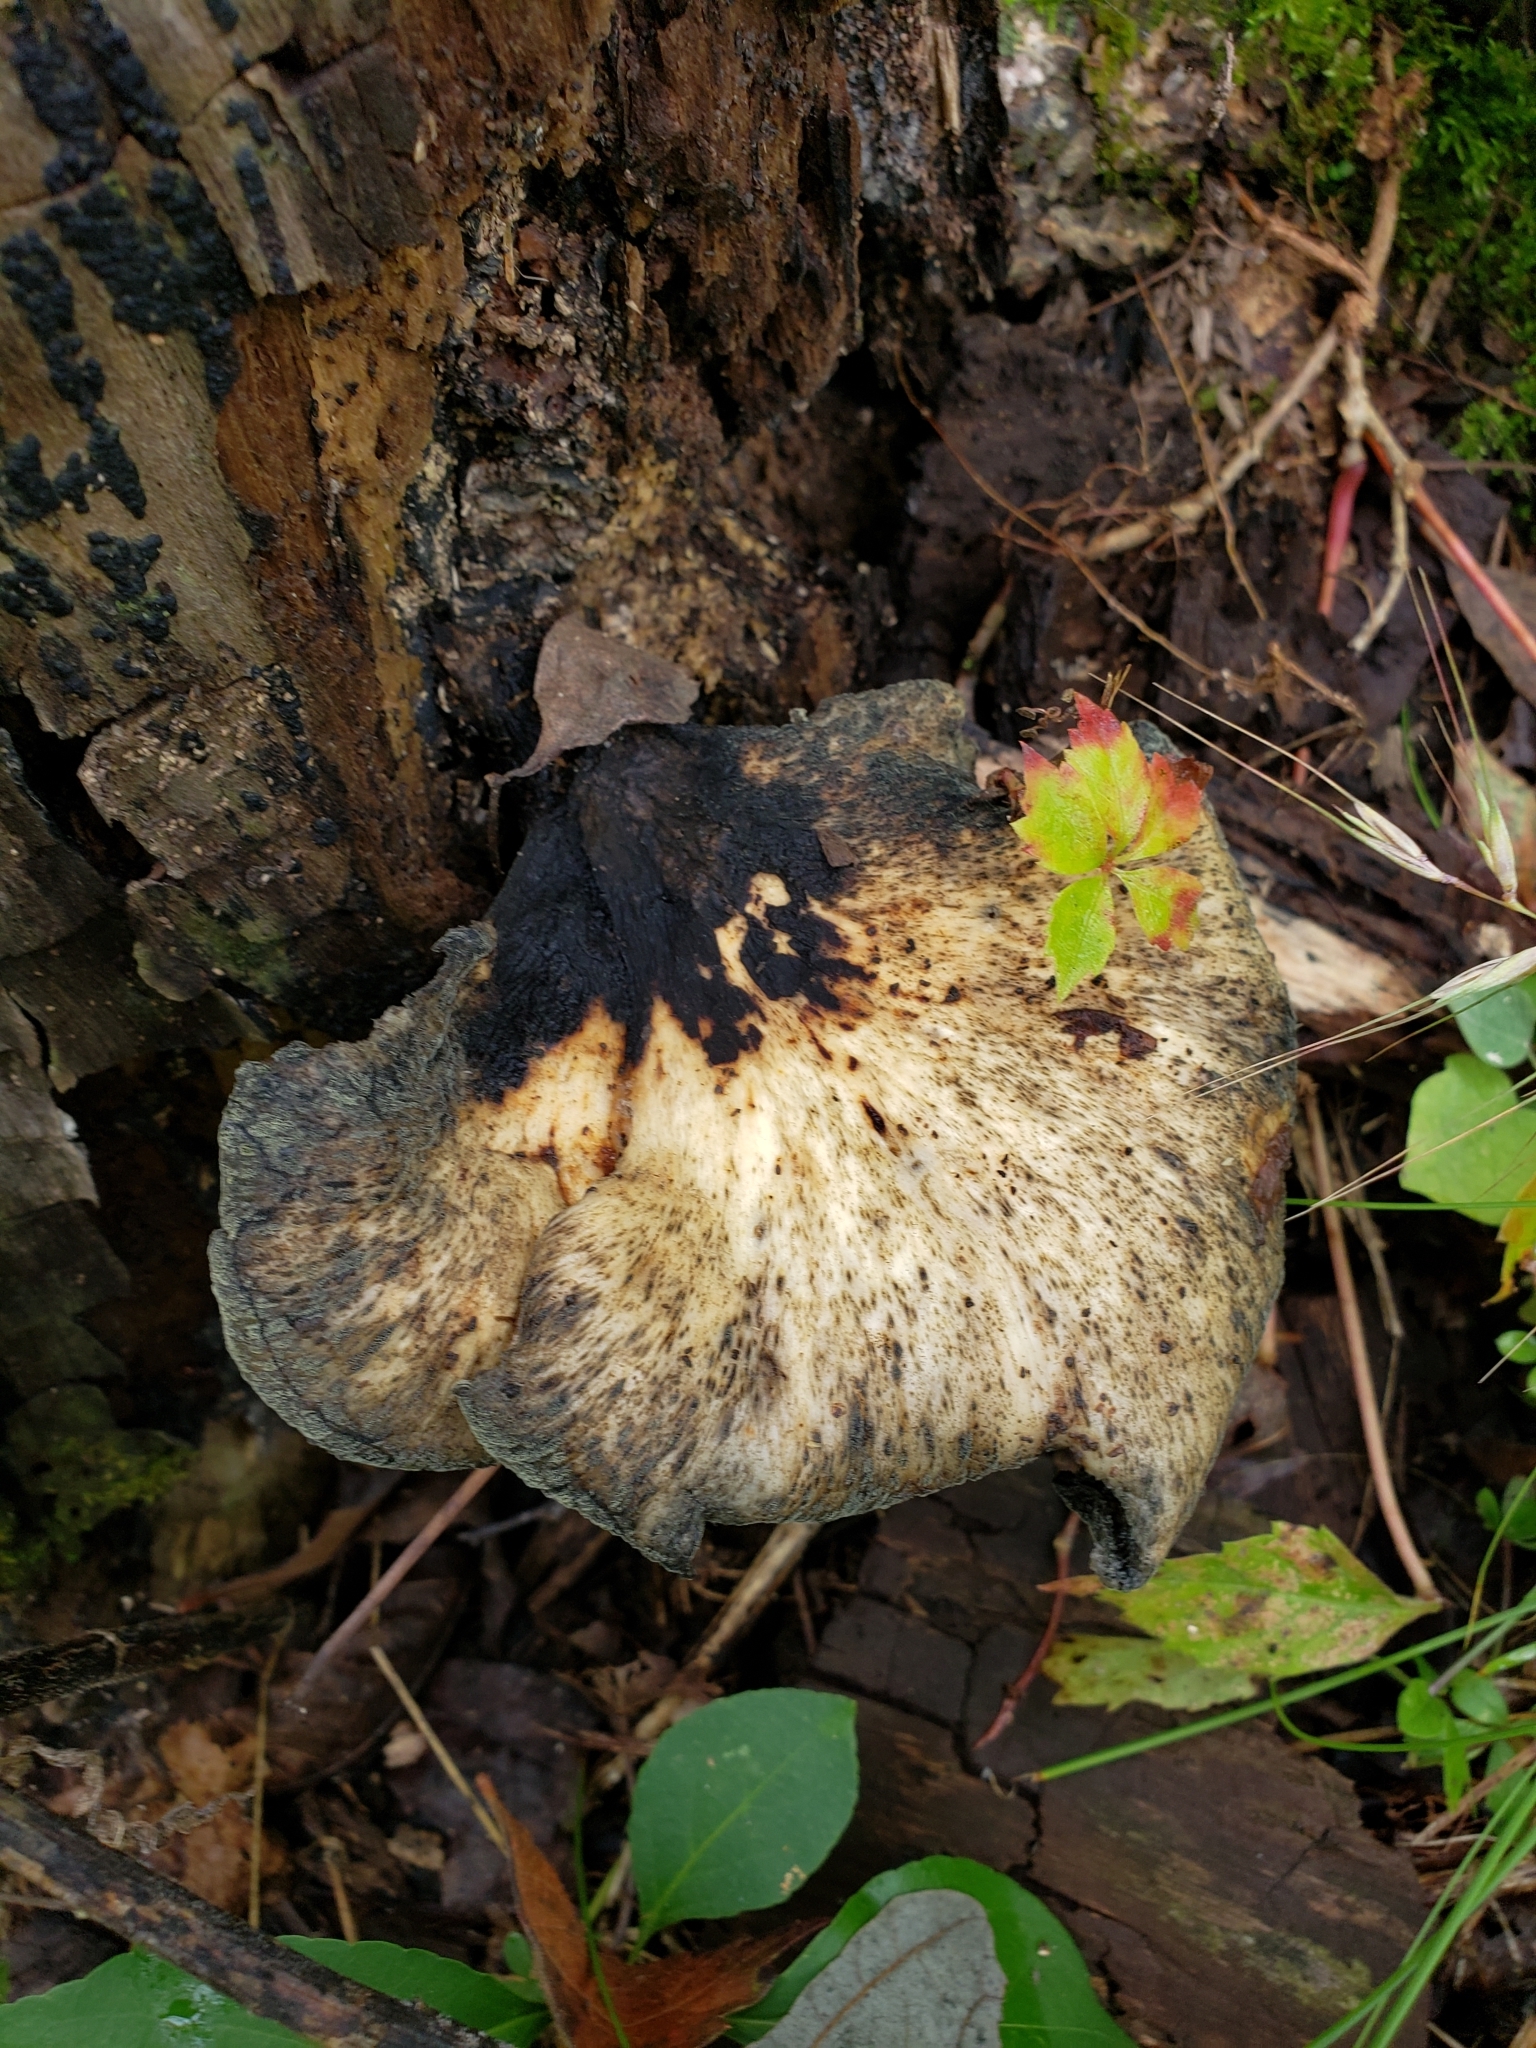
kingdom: Fungi
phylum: Basidiomycota
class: Agaricomycetes
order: Polyporales
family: Polyporaceae
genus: Cerioporus
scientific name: Cerioporus squamosus
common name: Dryad's saddle
